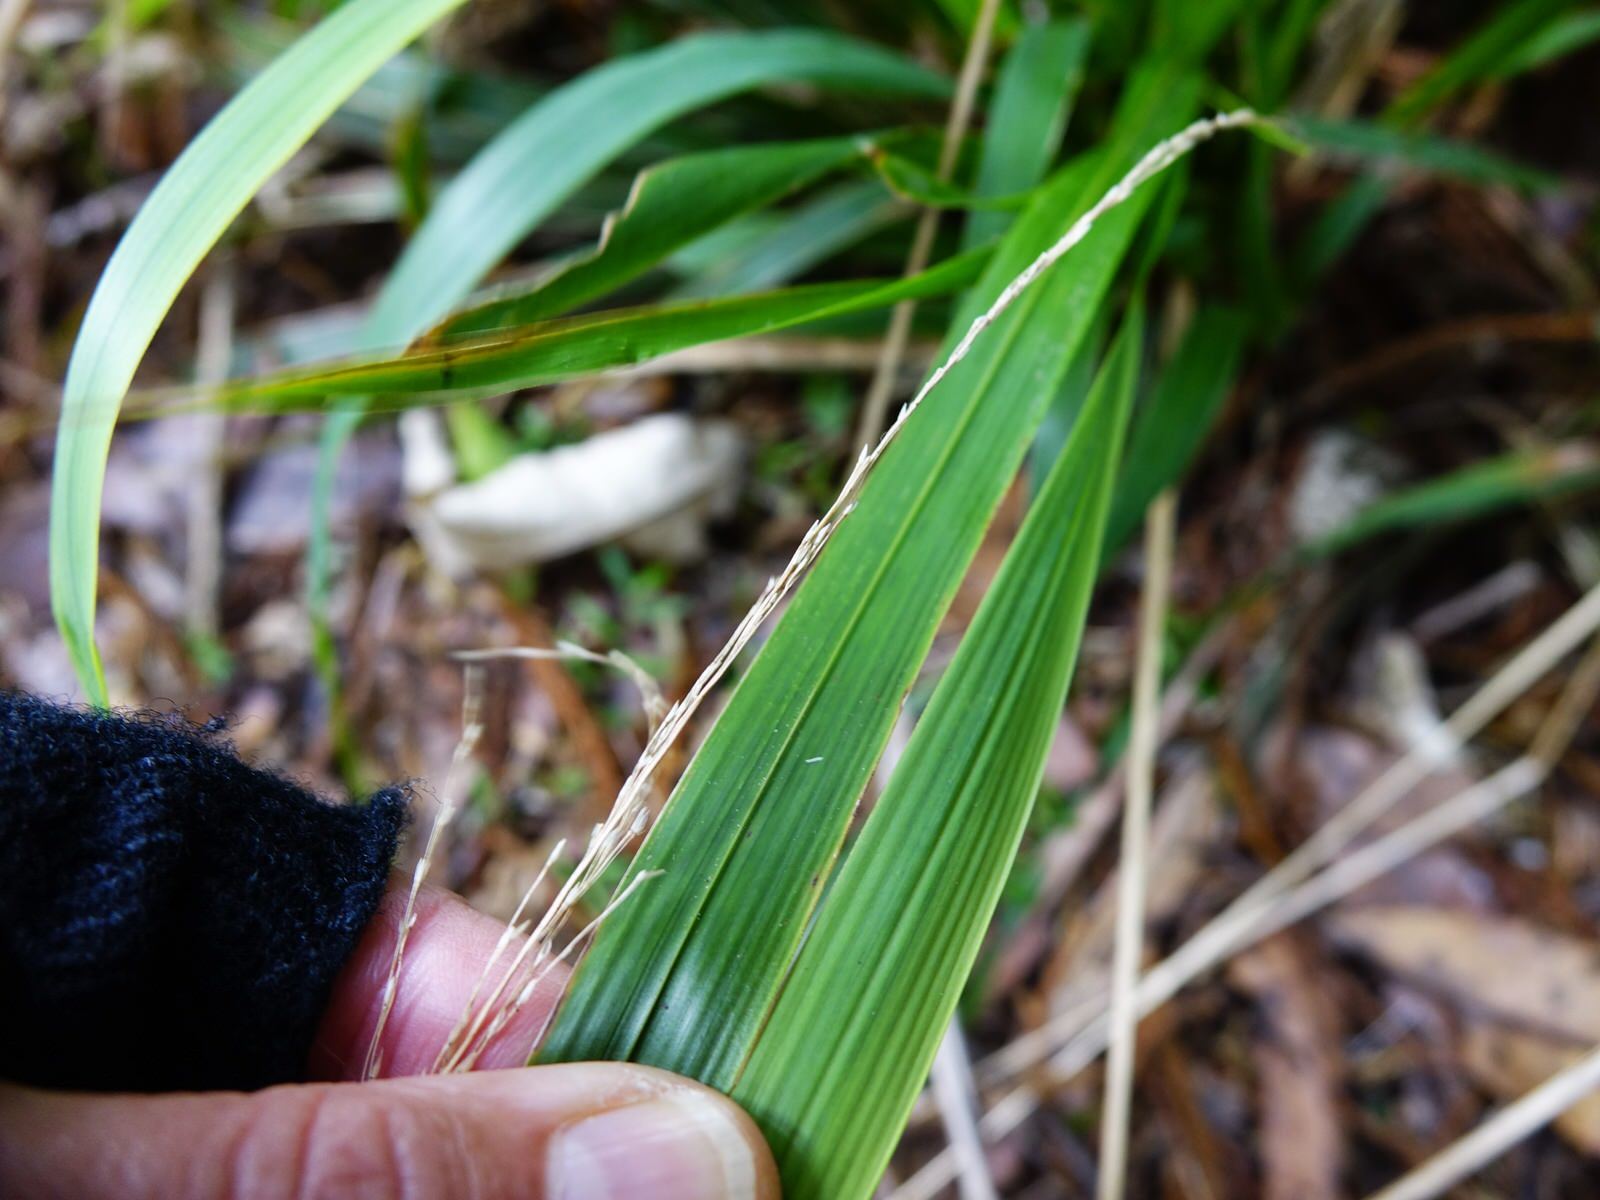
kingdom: Plantae
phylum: Tracheophyta
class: Liliopsida
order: Poales
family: Poaceae
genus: Ehrharta
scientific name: Ehrharta diplax
